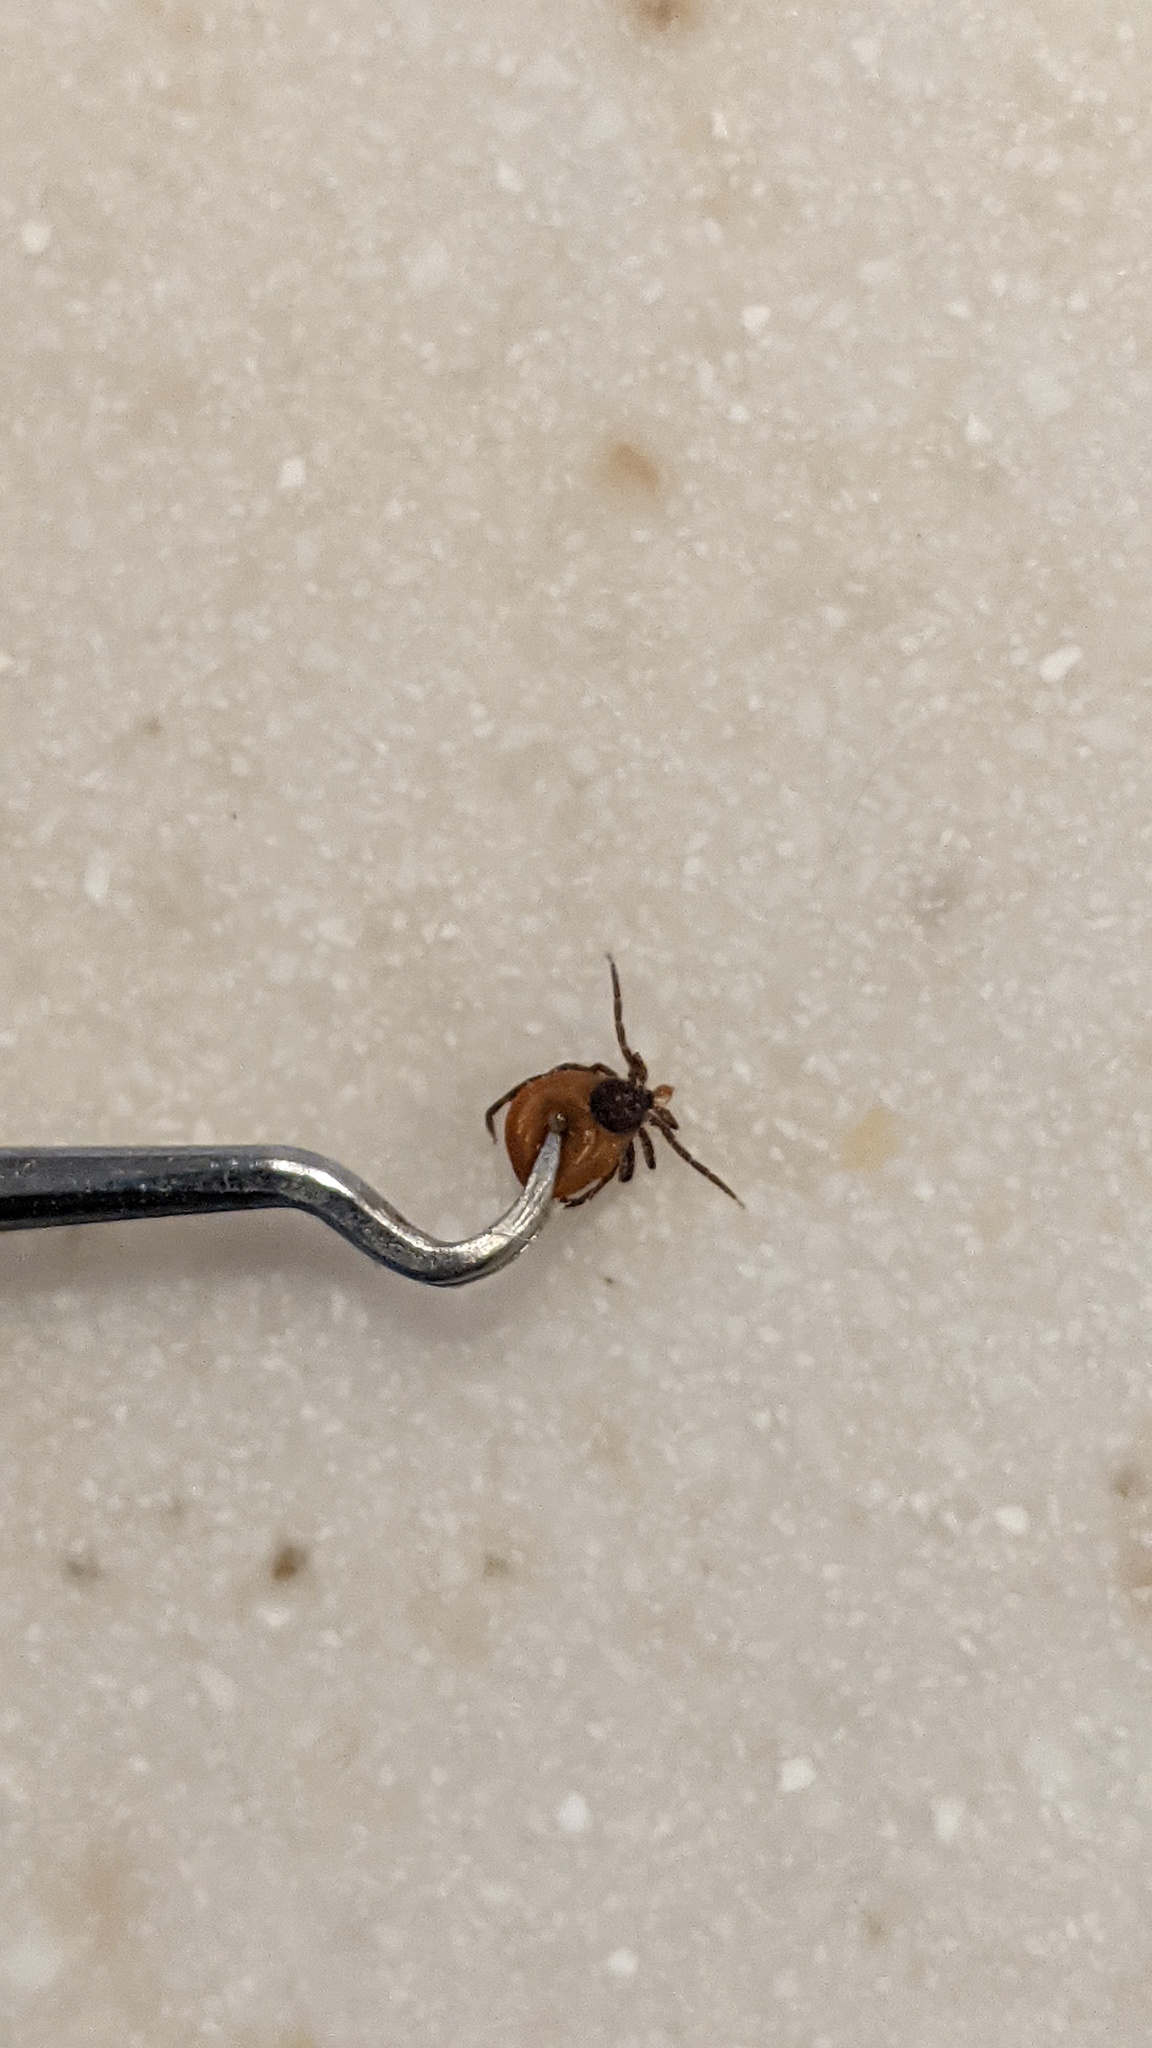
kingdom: Animalia
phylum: Arthropoda
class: Arachnida
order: Ixodida
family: Ixodidae
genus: Ixodes
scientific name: Ixodes scapularis
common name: Black legged tick
